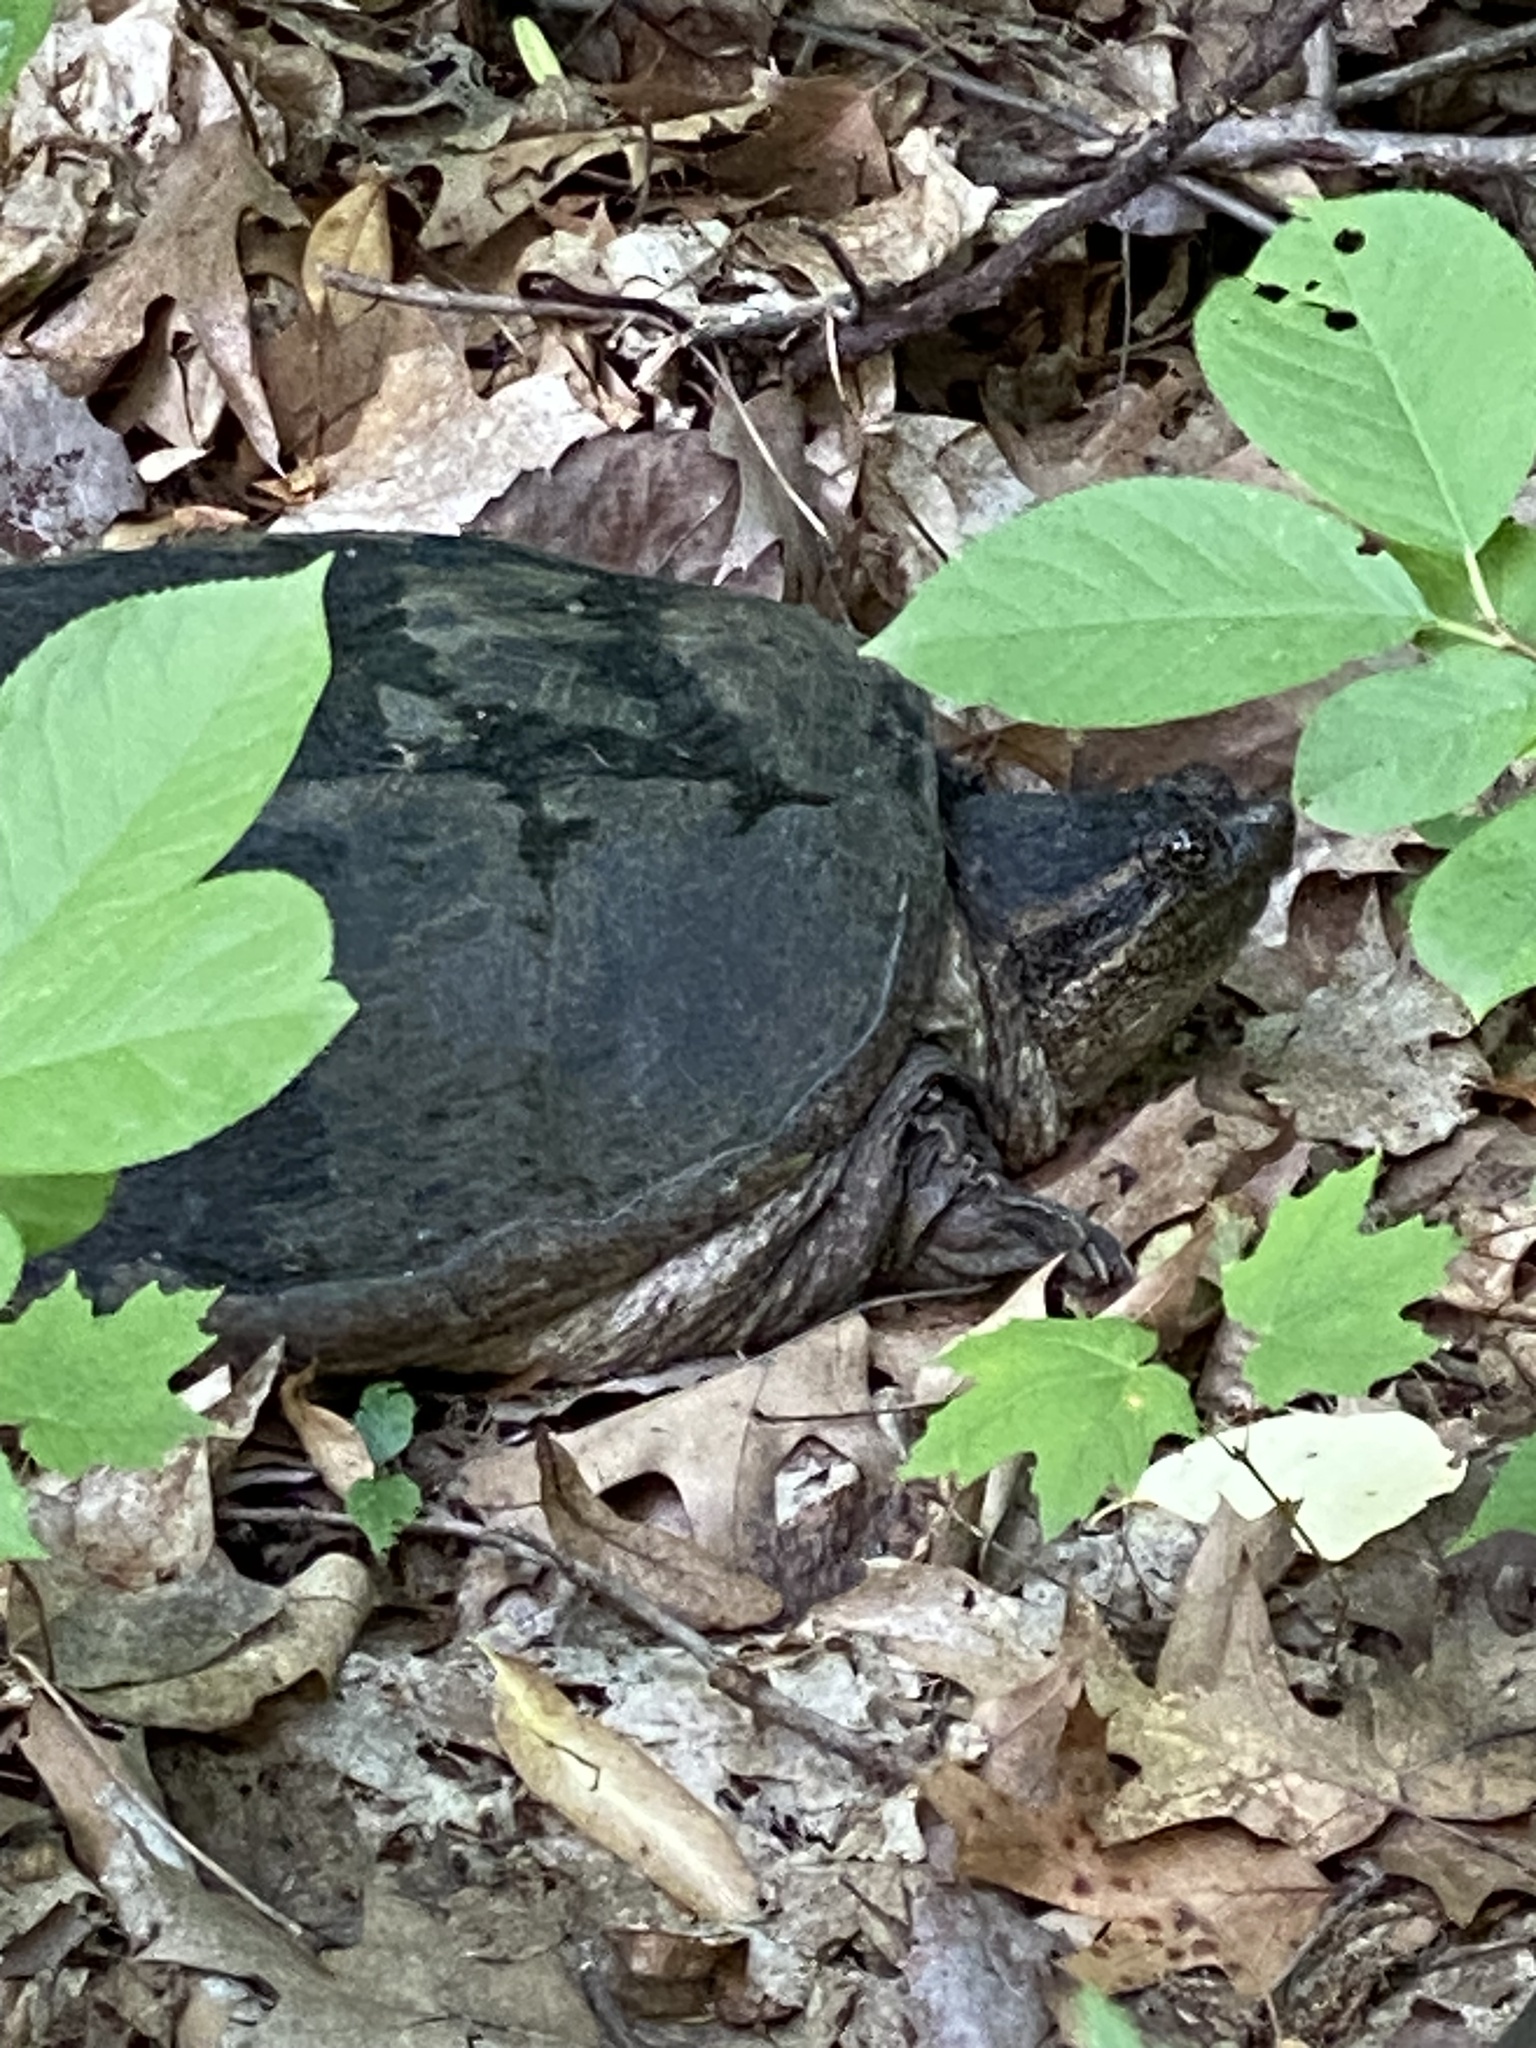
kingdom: Animalia
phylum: Chordata
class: Testudines
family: Chelydridae
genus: Chelydra
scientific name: Chelydra serpentina
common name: Common snapping turtle
